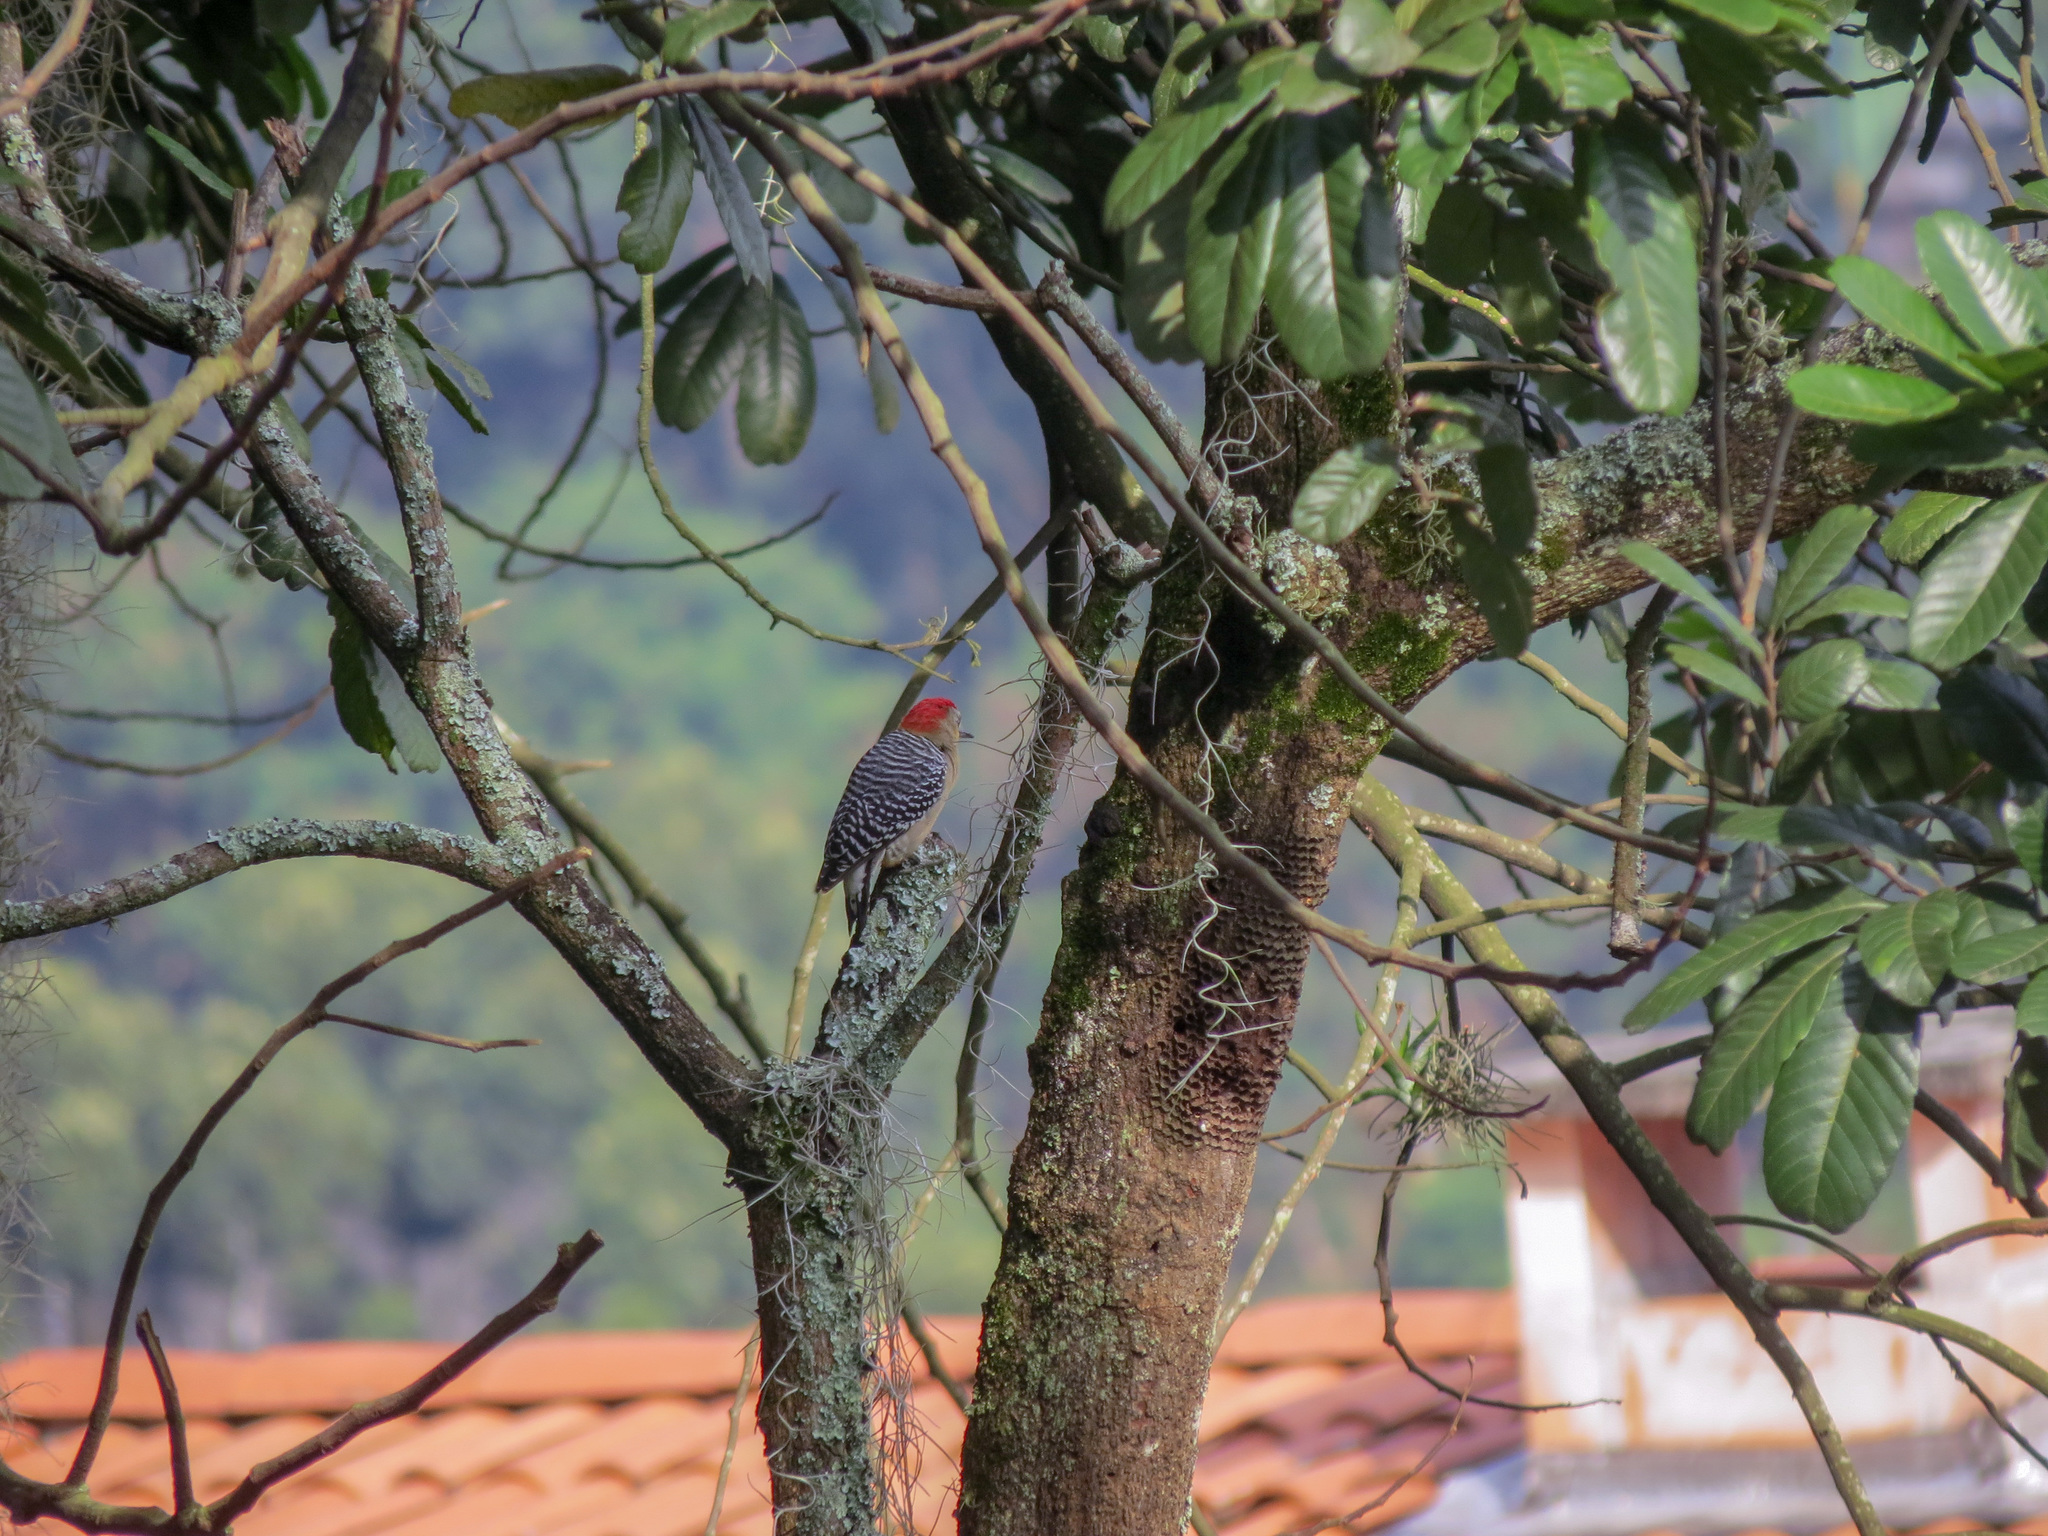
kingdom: Animalia
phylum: Chordata
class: Aves
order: Piciformes
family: Picidae
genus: Melanerpes
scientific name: Melanerpes rubricapillus
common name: Red-crowned woodpecker
